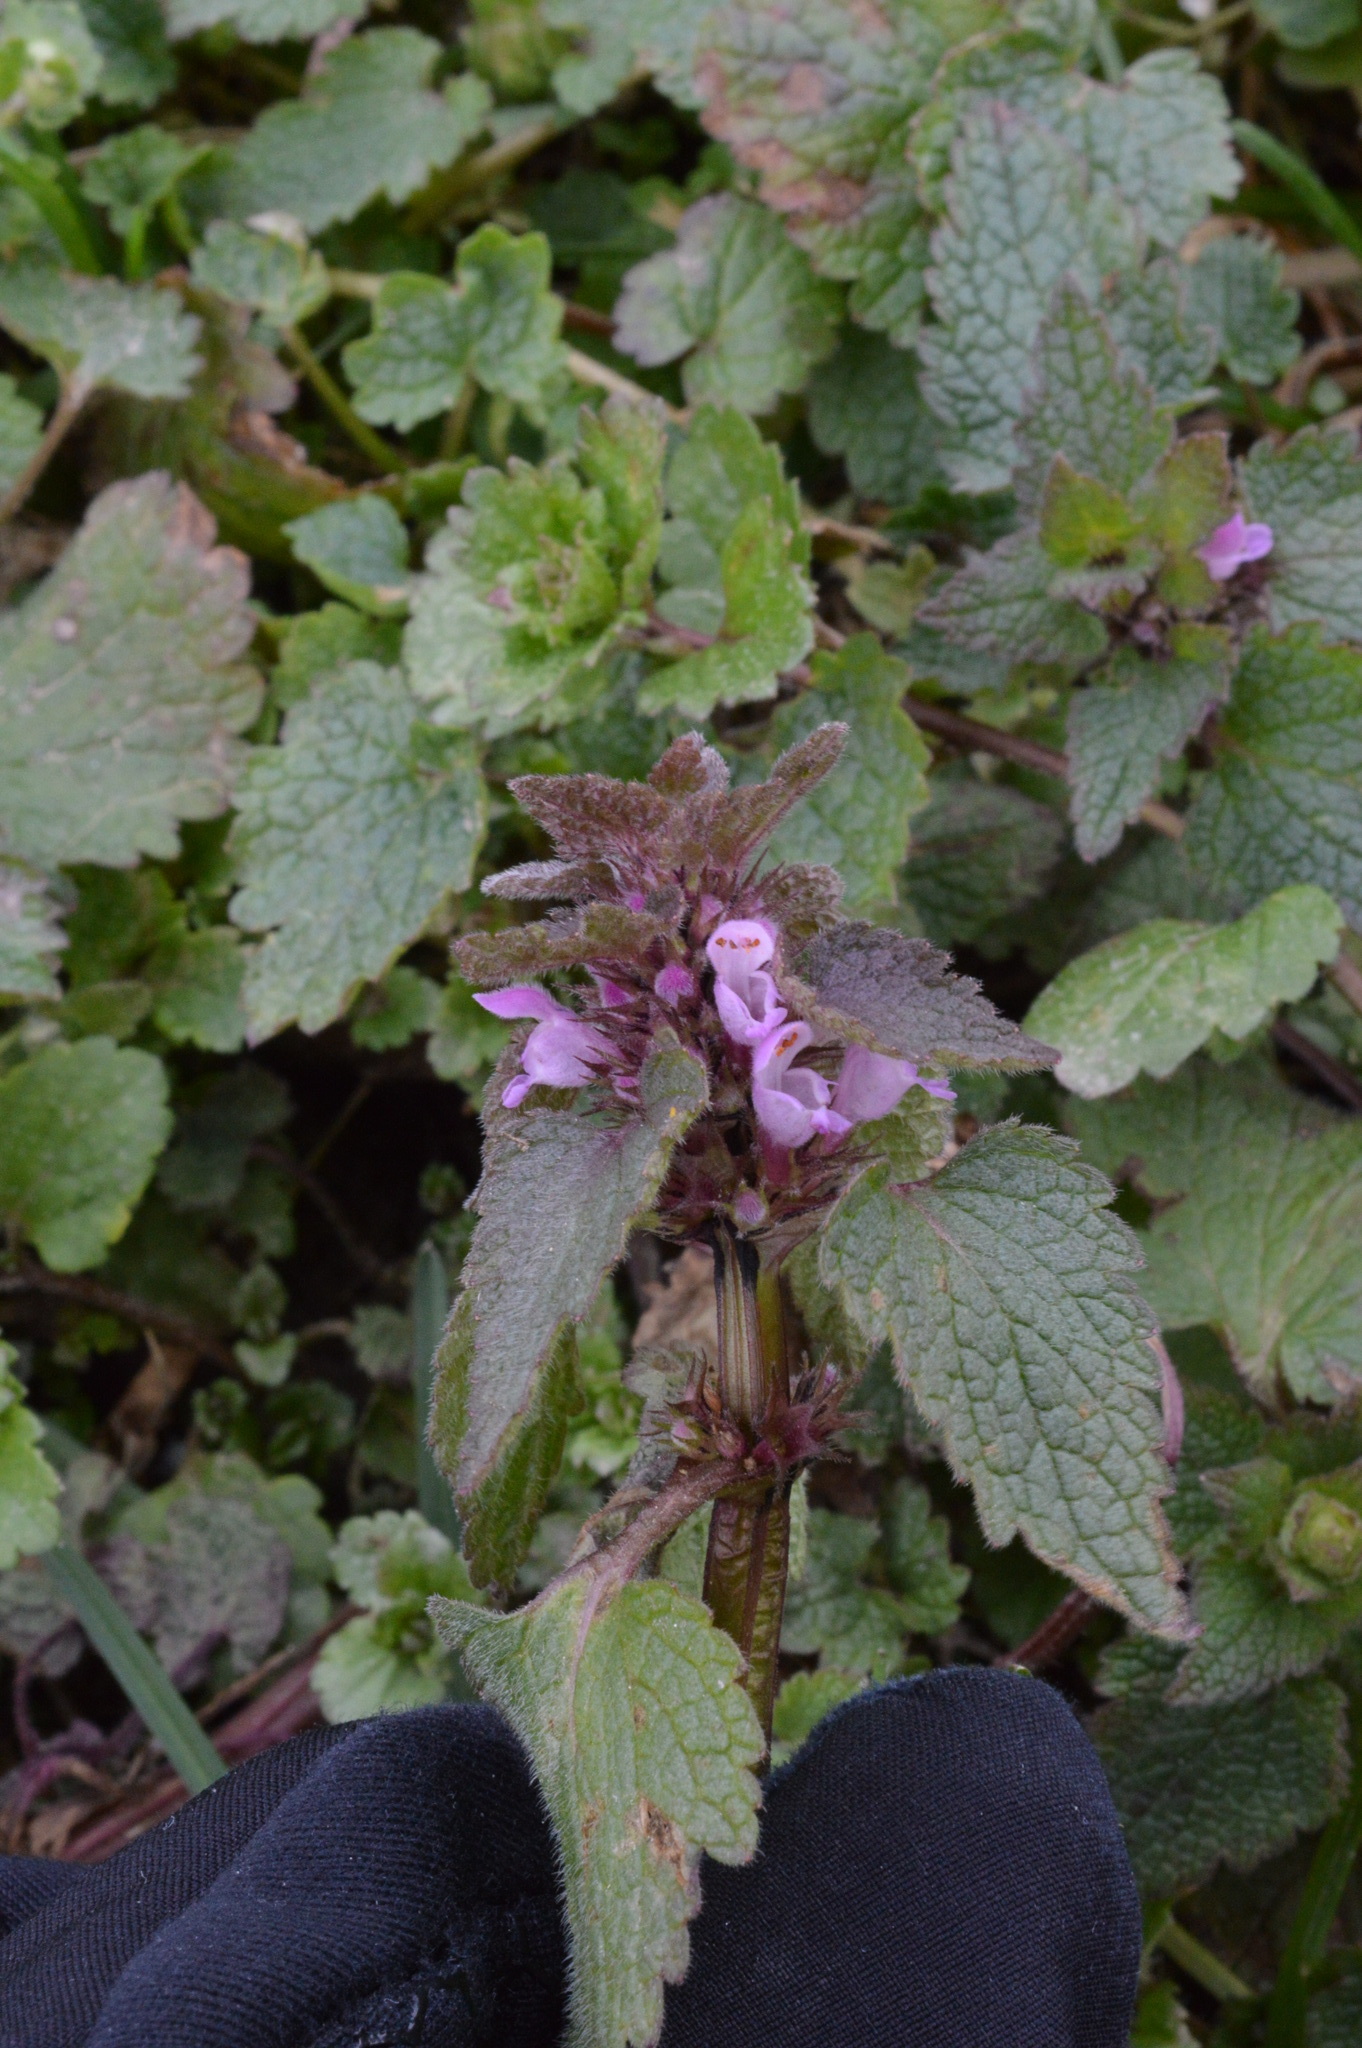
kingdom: Plantae
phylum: Tracheophyta
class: Magnoliopsida
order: Lamiales
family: Lamiaceae
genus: Lamium
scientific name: Lamium purpureum
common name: Red dead-nettle
